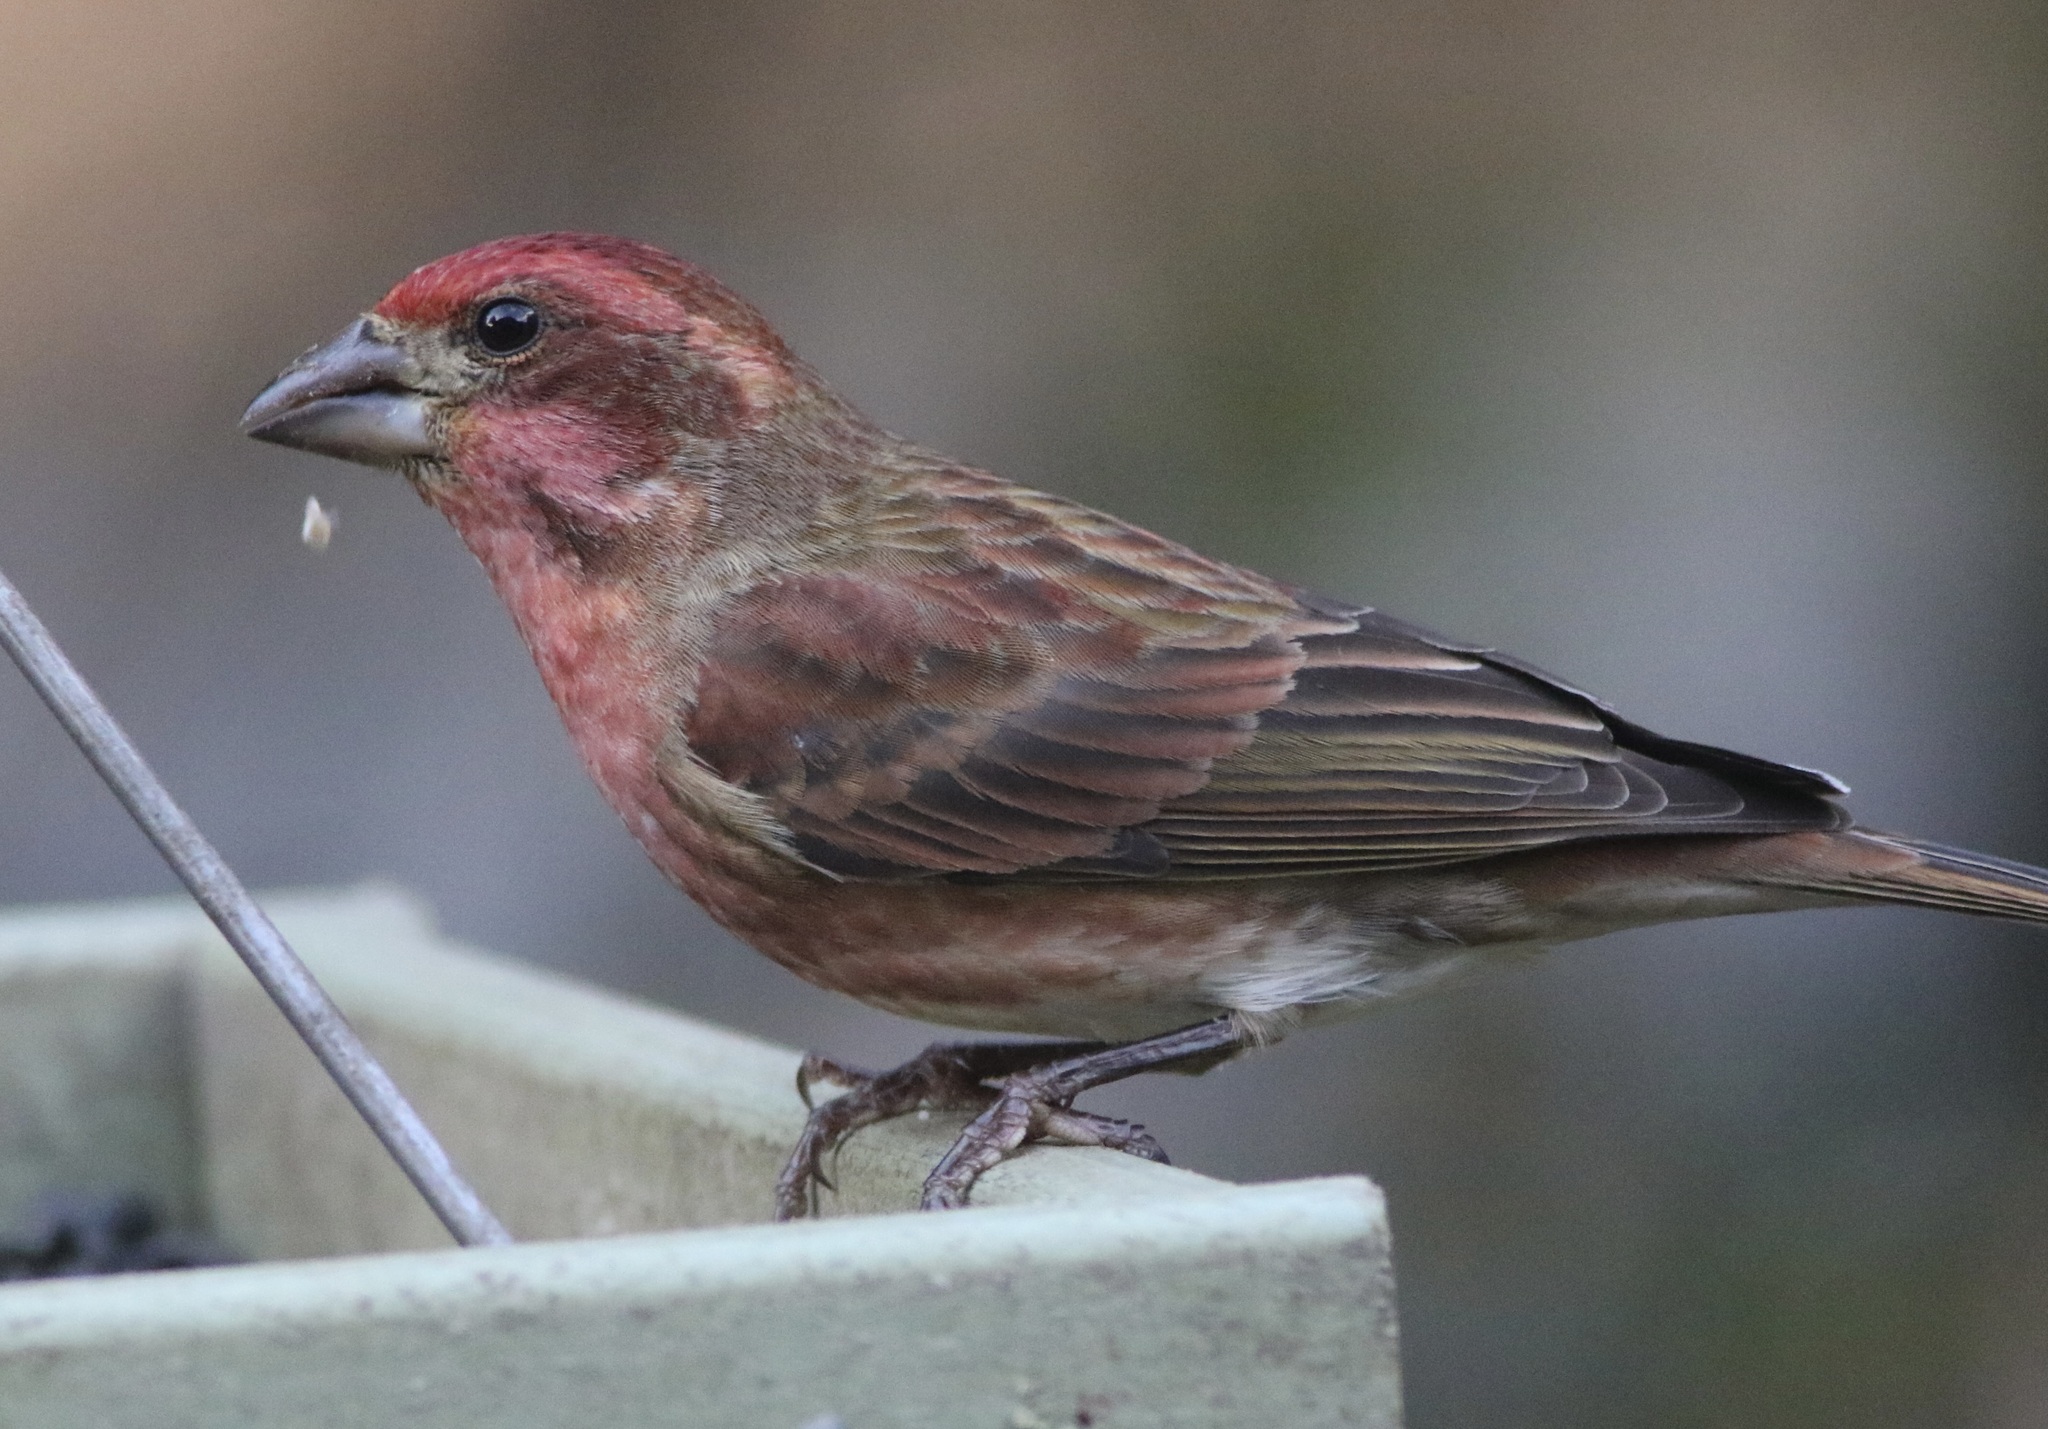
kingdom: Animalia
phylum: Chordata
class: Aves
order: Passeriformes
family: Fringillidae
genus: Haemorhous
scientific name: Haemorhous purpureus
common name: Purple finch
